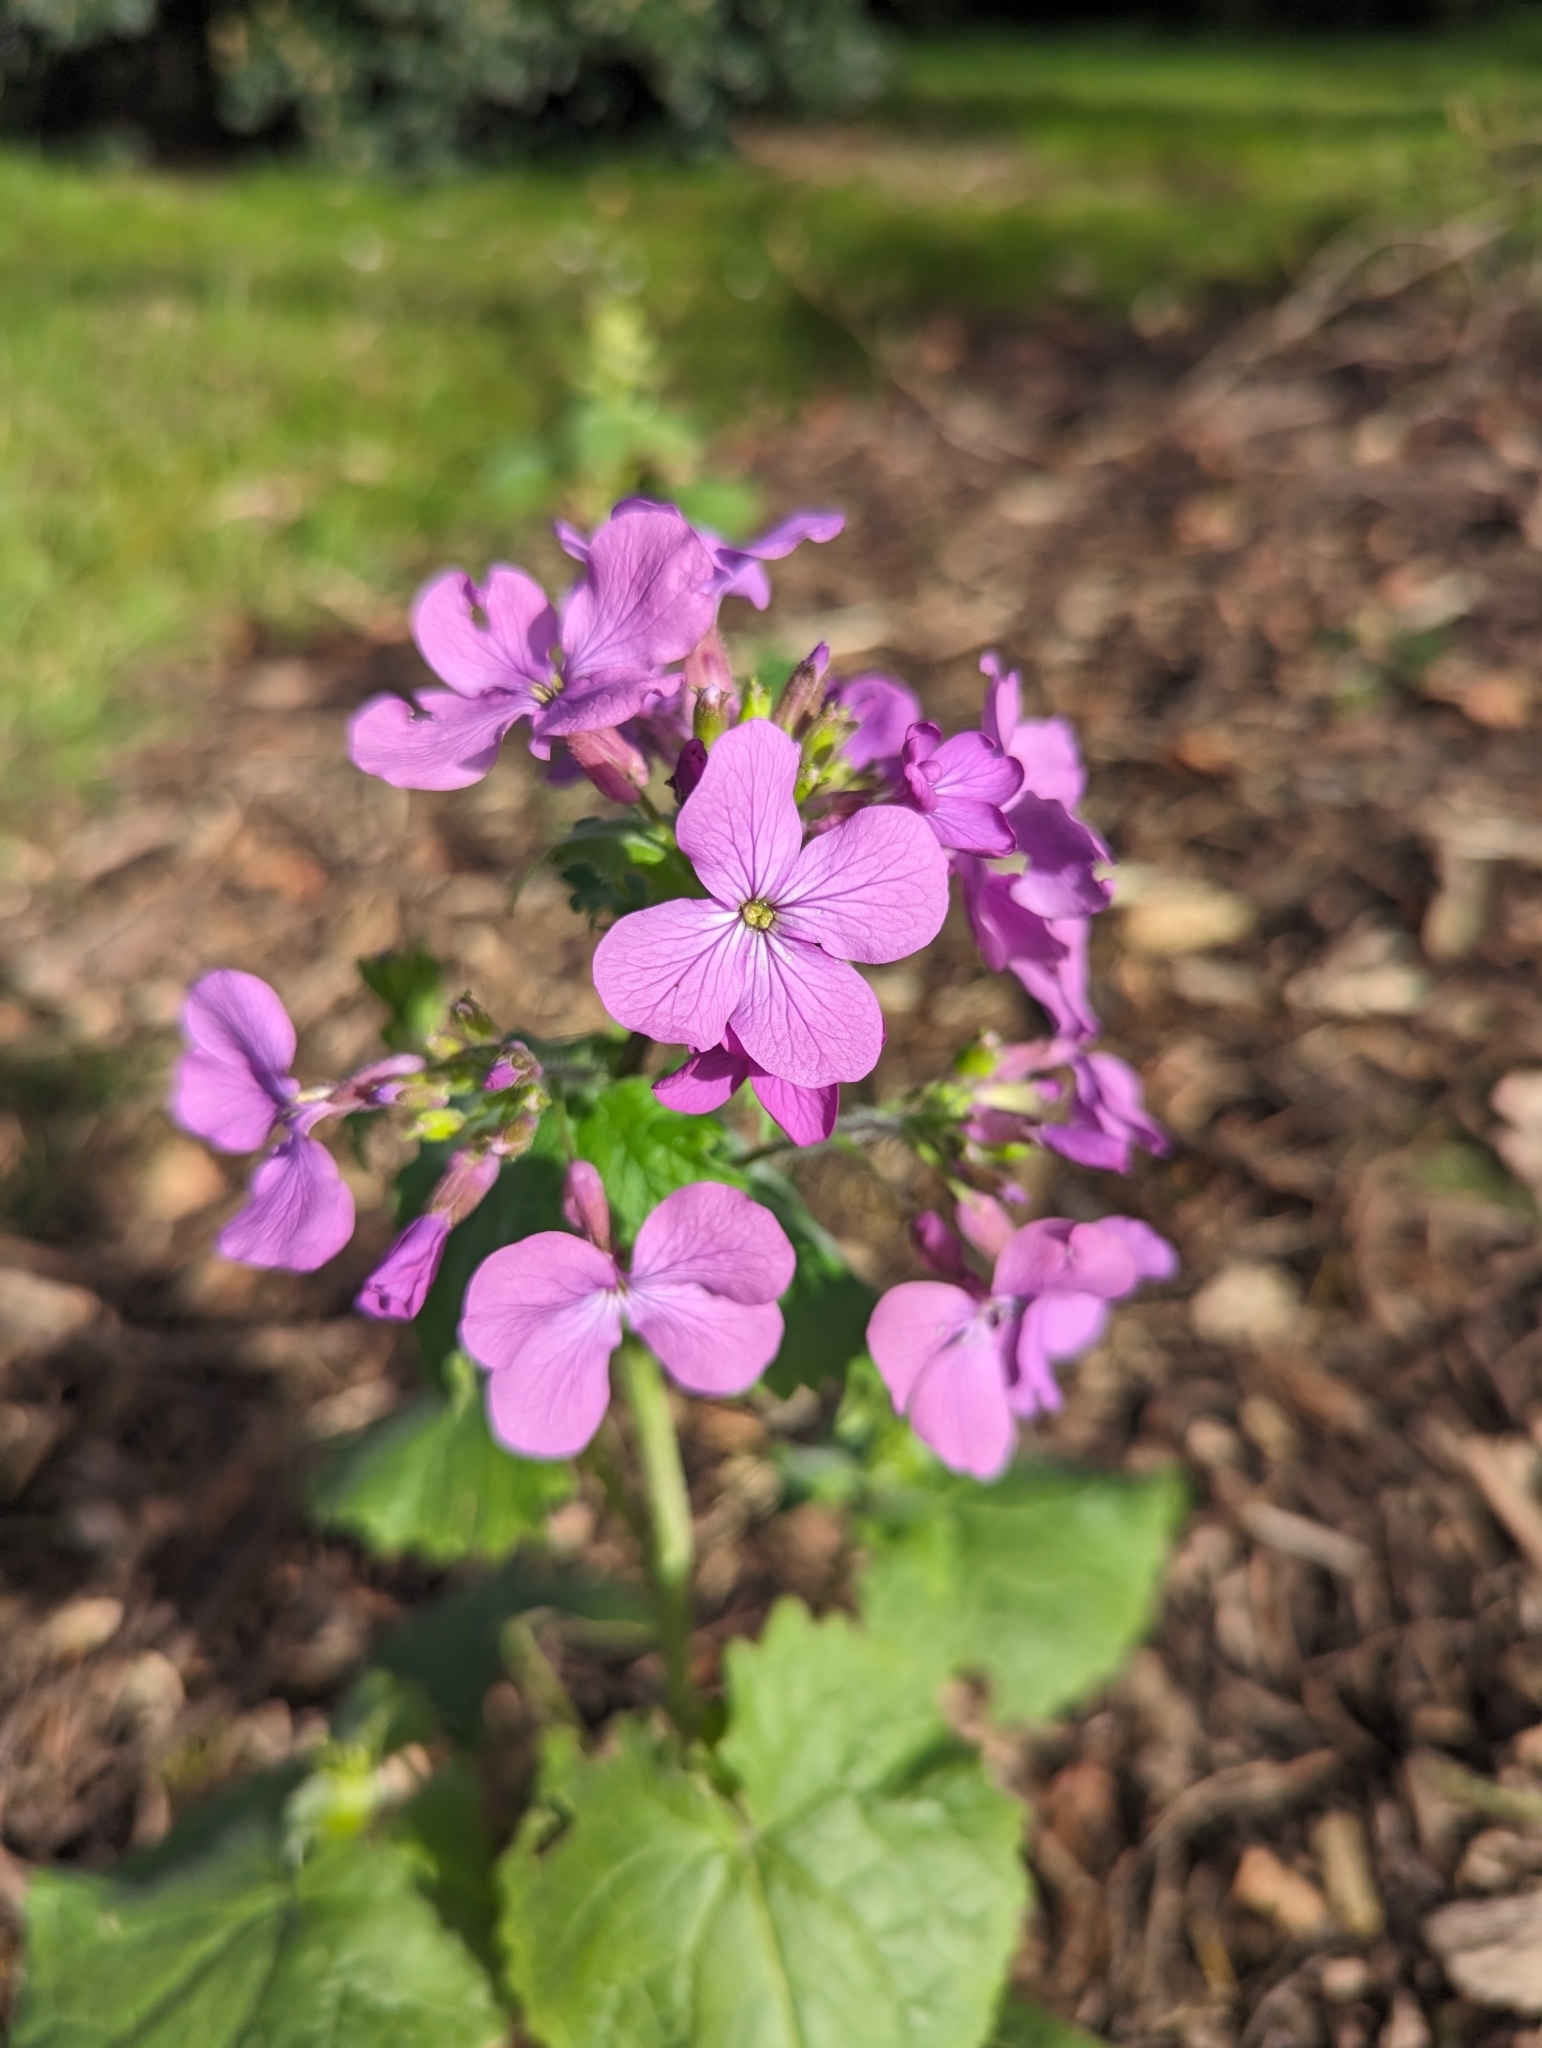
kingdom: Plantae
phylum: Tracheophyta
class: Magnoliopsida
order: Brassicales
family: Brassicaceae
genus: Lunaria
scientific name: Lunaria annua
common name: Honesty
